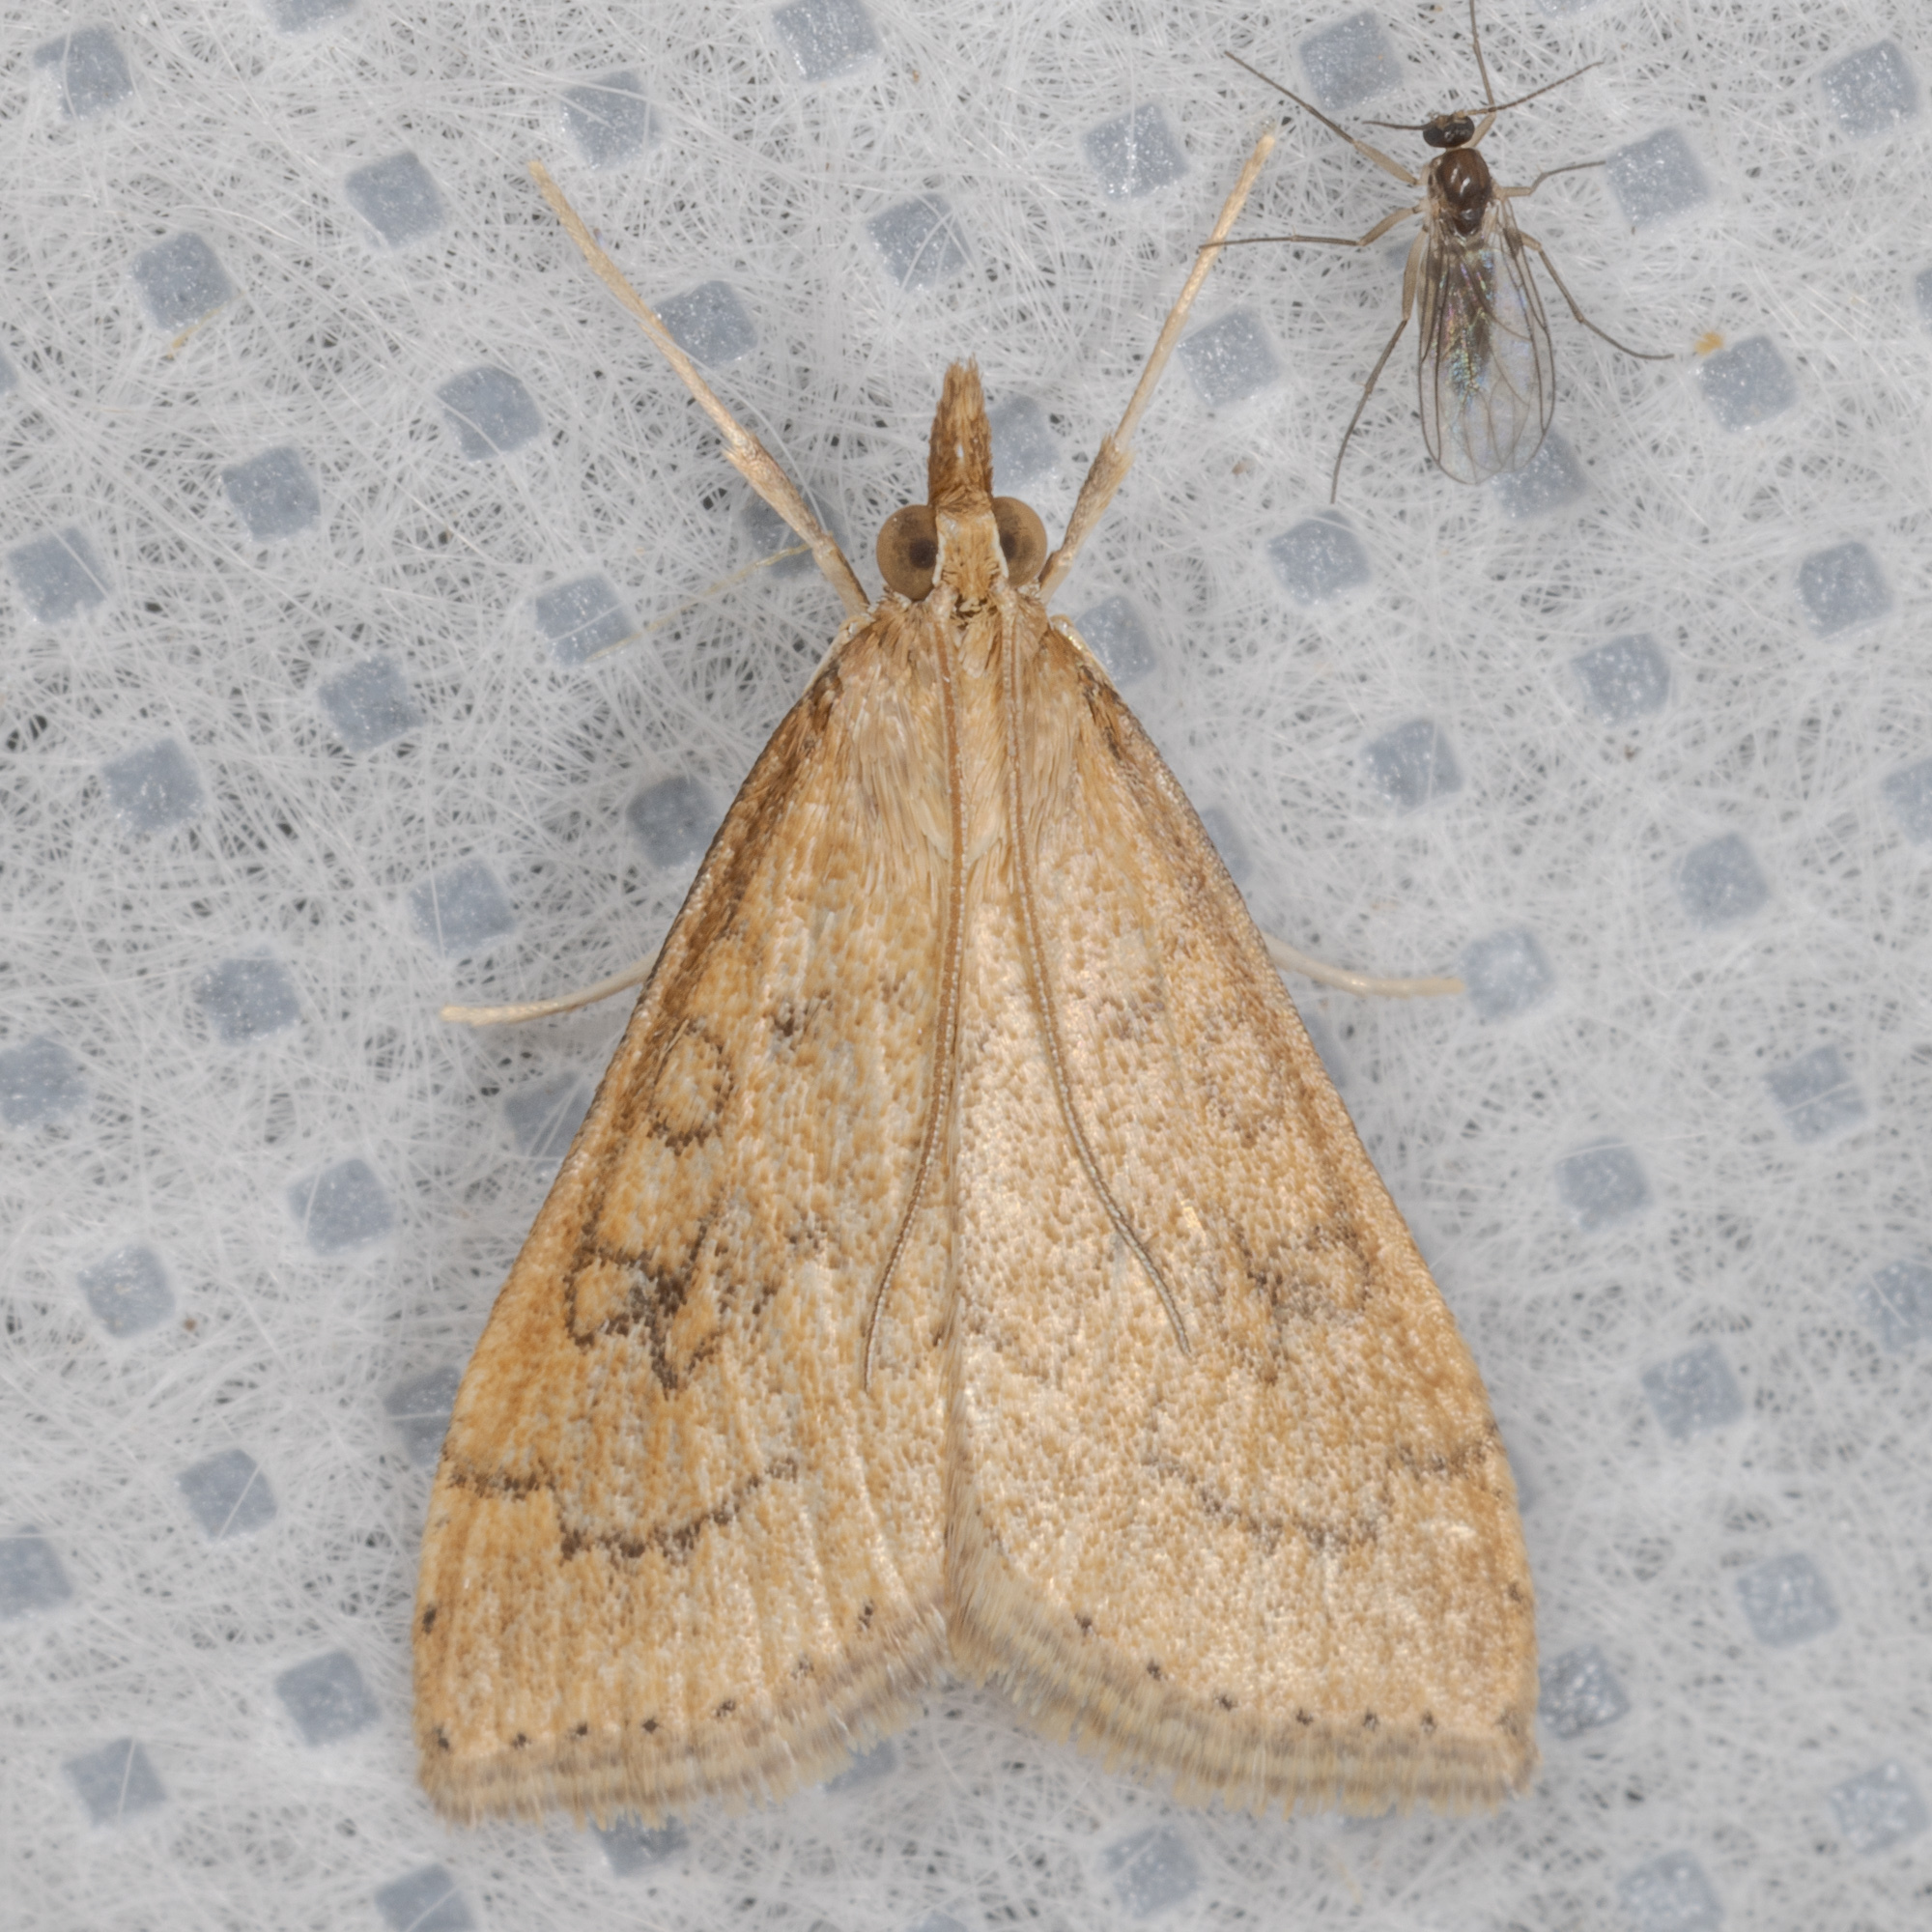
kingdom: Animalia
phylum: Arthropoda
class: Insecta
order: Lepidoptera
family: Crambidae
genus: Udea
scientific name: Udea rubigalis
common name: Celery leaftier moth
